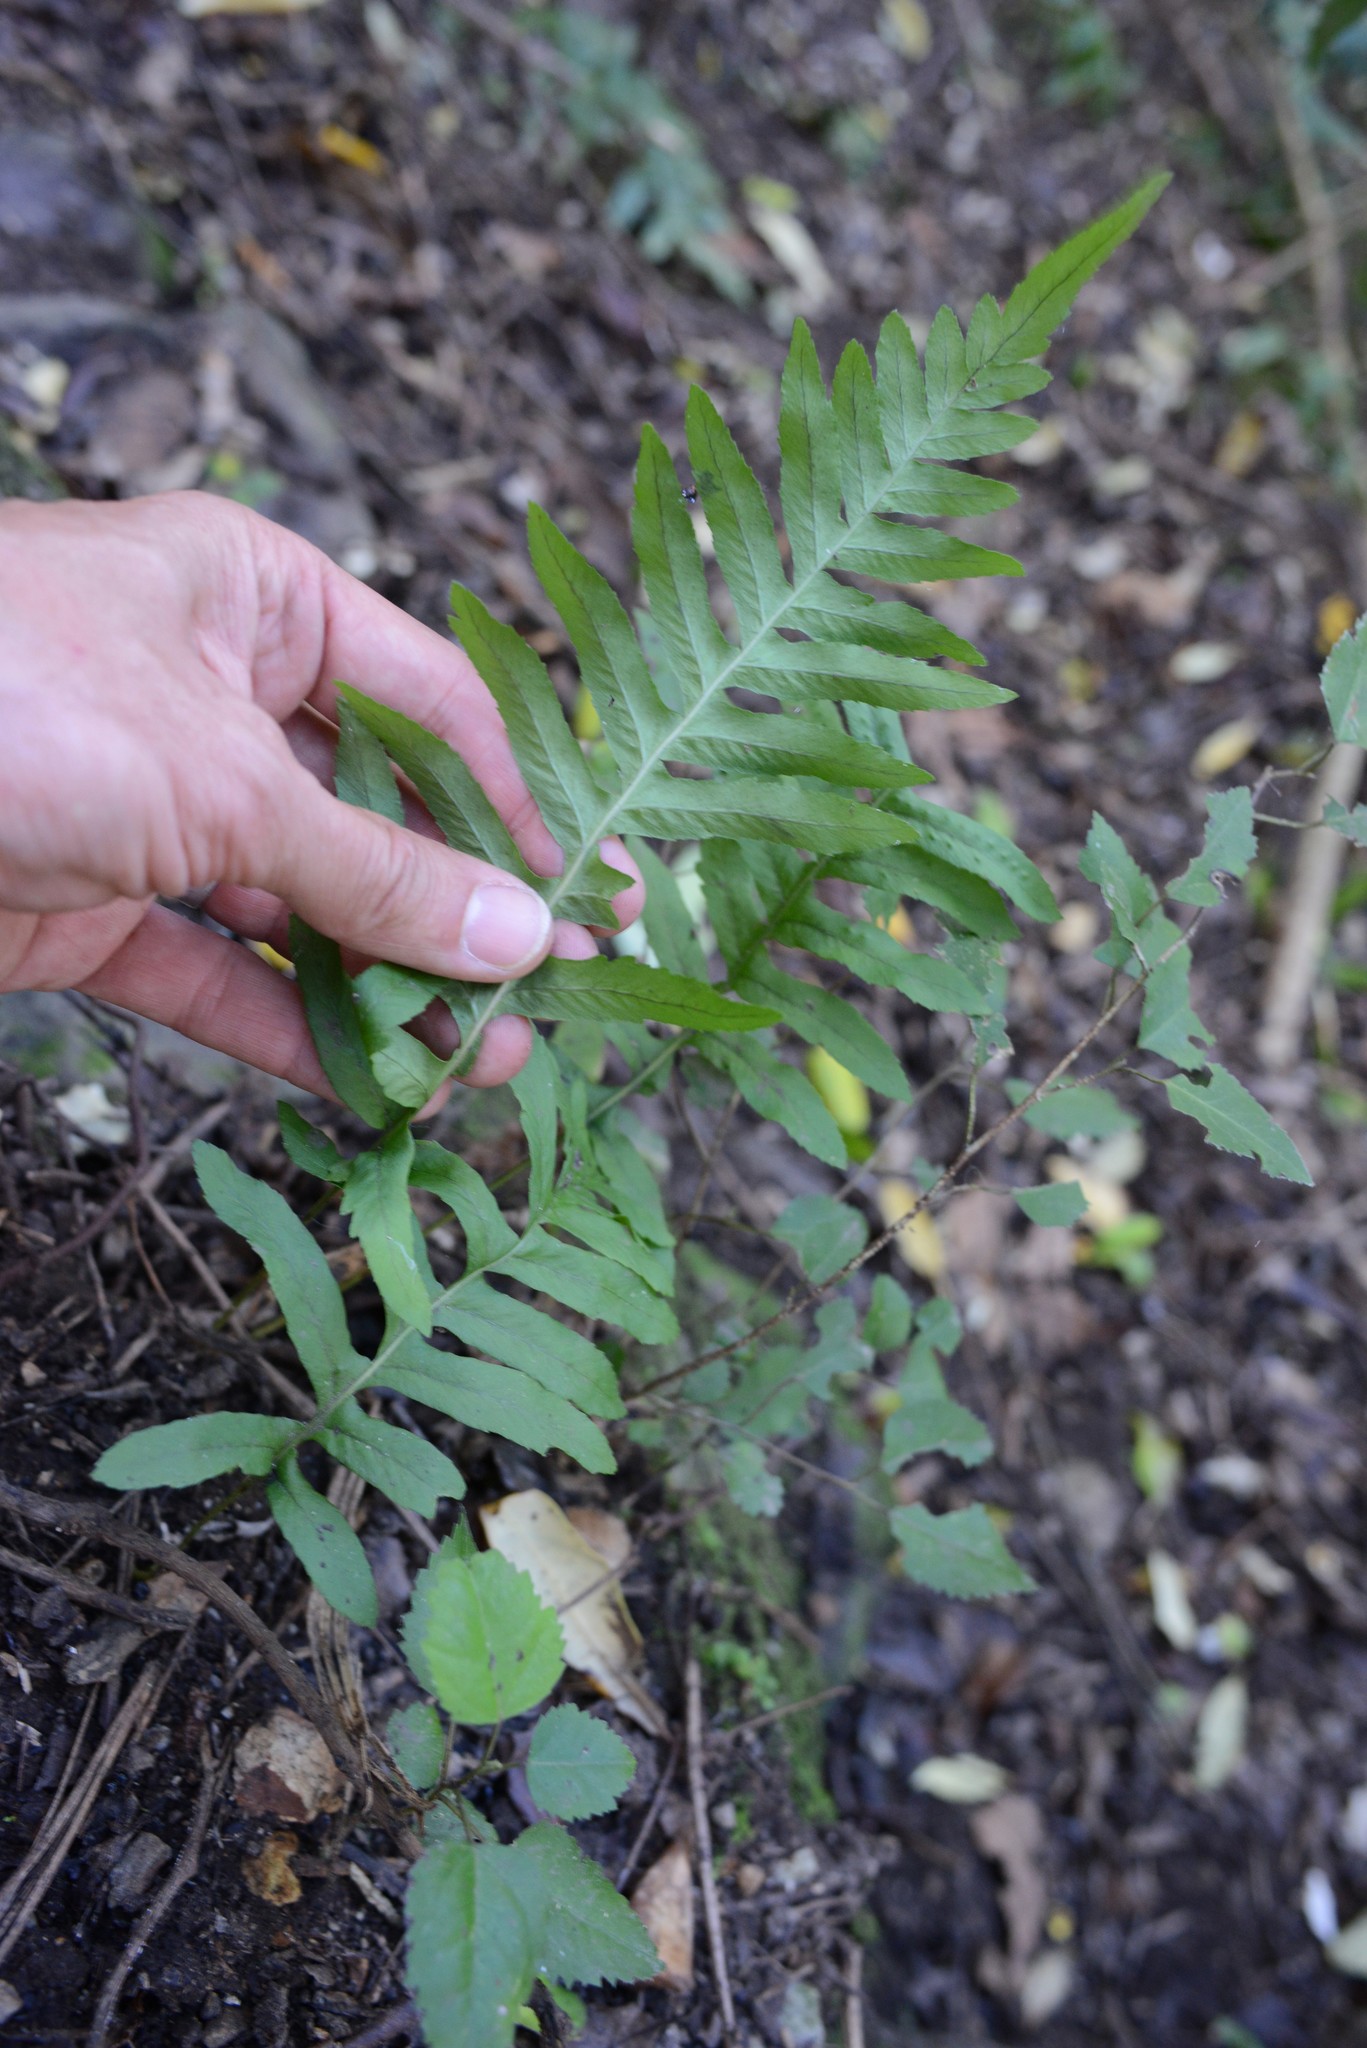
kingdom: Plantae
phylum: Tracheophyta
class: Polypodiopsida
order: Polypodiales
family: Polypodiaceae
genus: Polypodium
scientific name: Polypodium vulgare
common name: Common polypody
